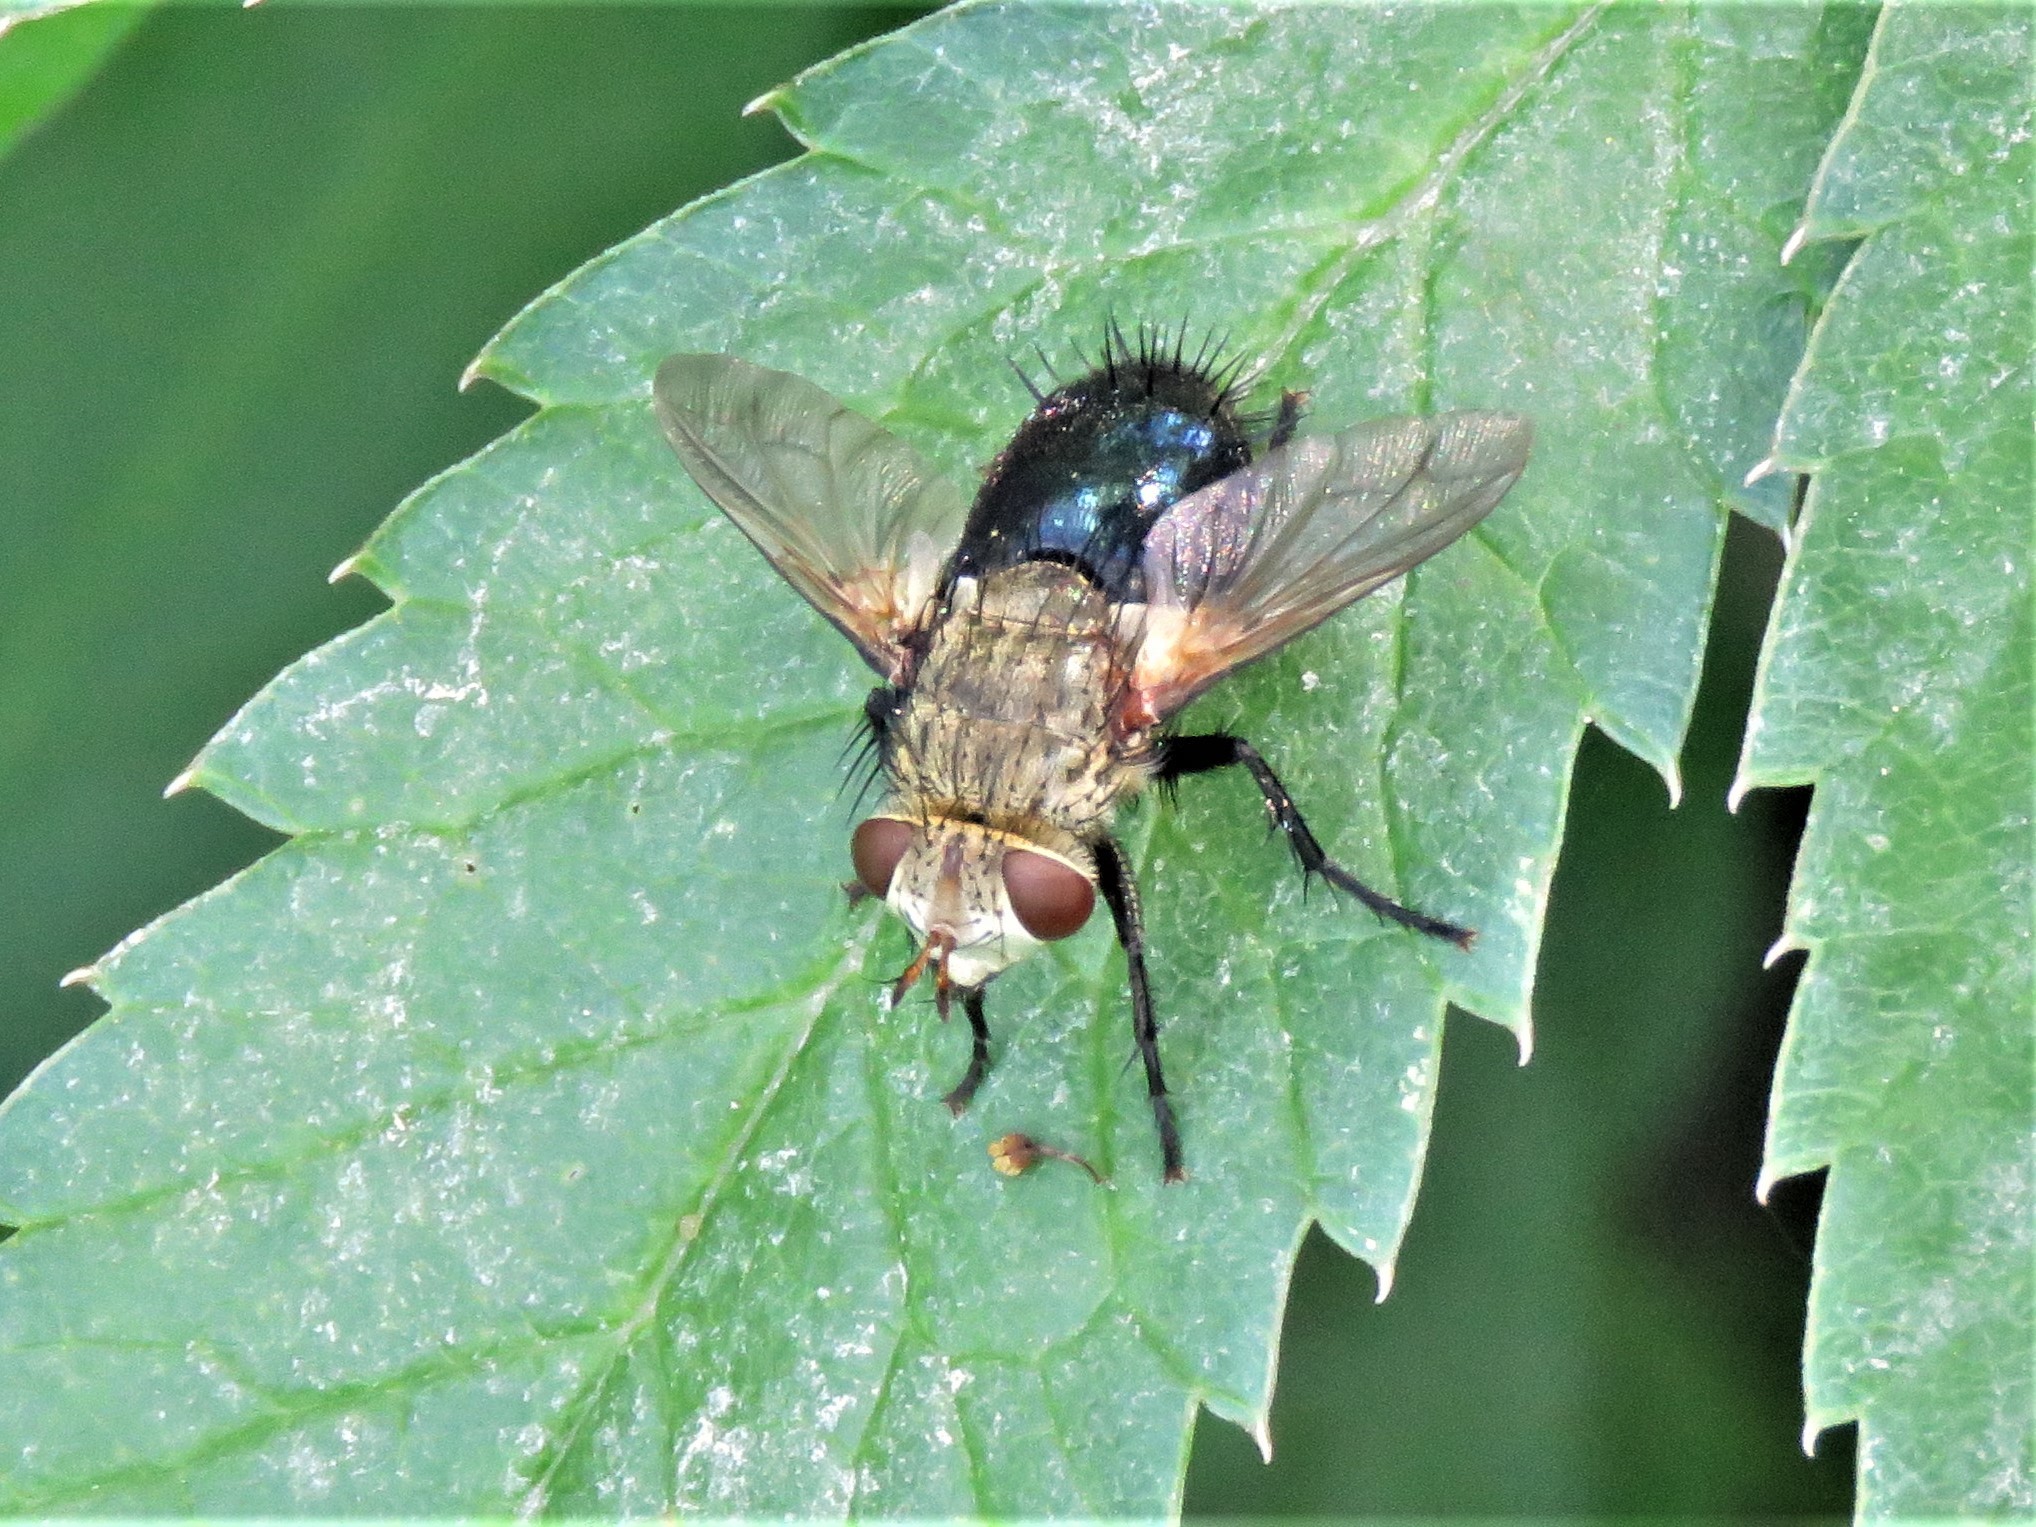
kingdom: Animalia
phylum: Arthropoda
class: Insecta
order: Diptera
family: Tachinidae
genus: Archytas
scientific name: Archytas apicifer
